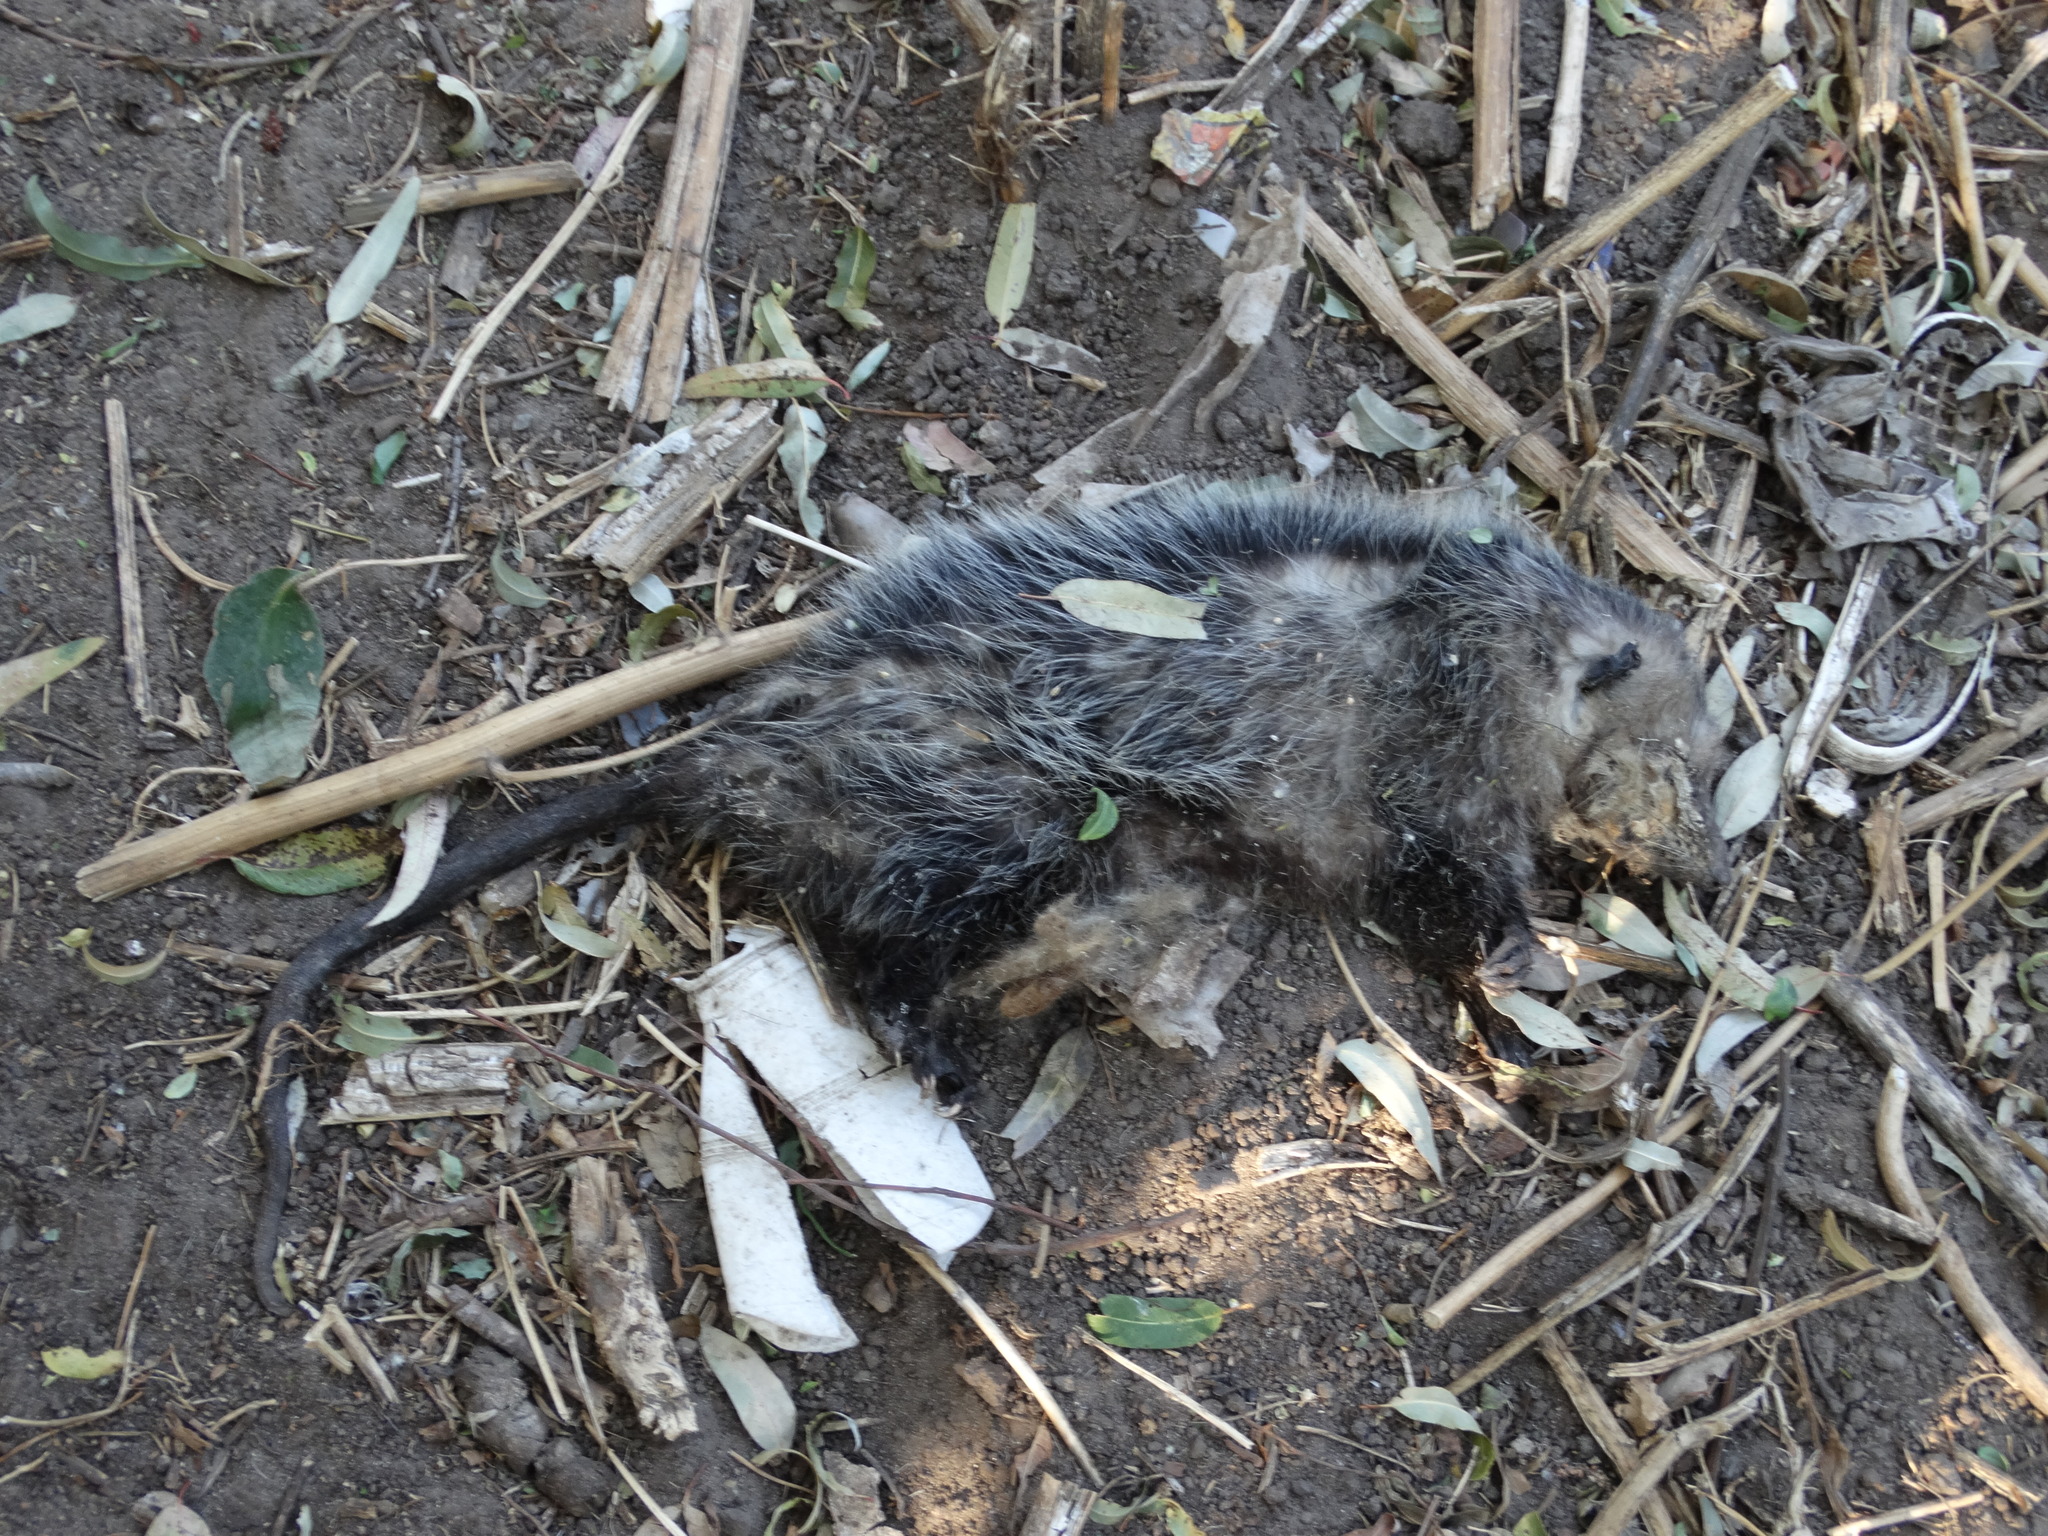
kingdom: Animalia
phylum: Chordata
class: Mammalia
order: Didelphimorphia
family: Didelphidae
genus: Didelphis
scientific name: Didelphis virginiana
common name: Virginia opossum
